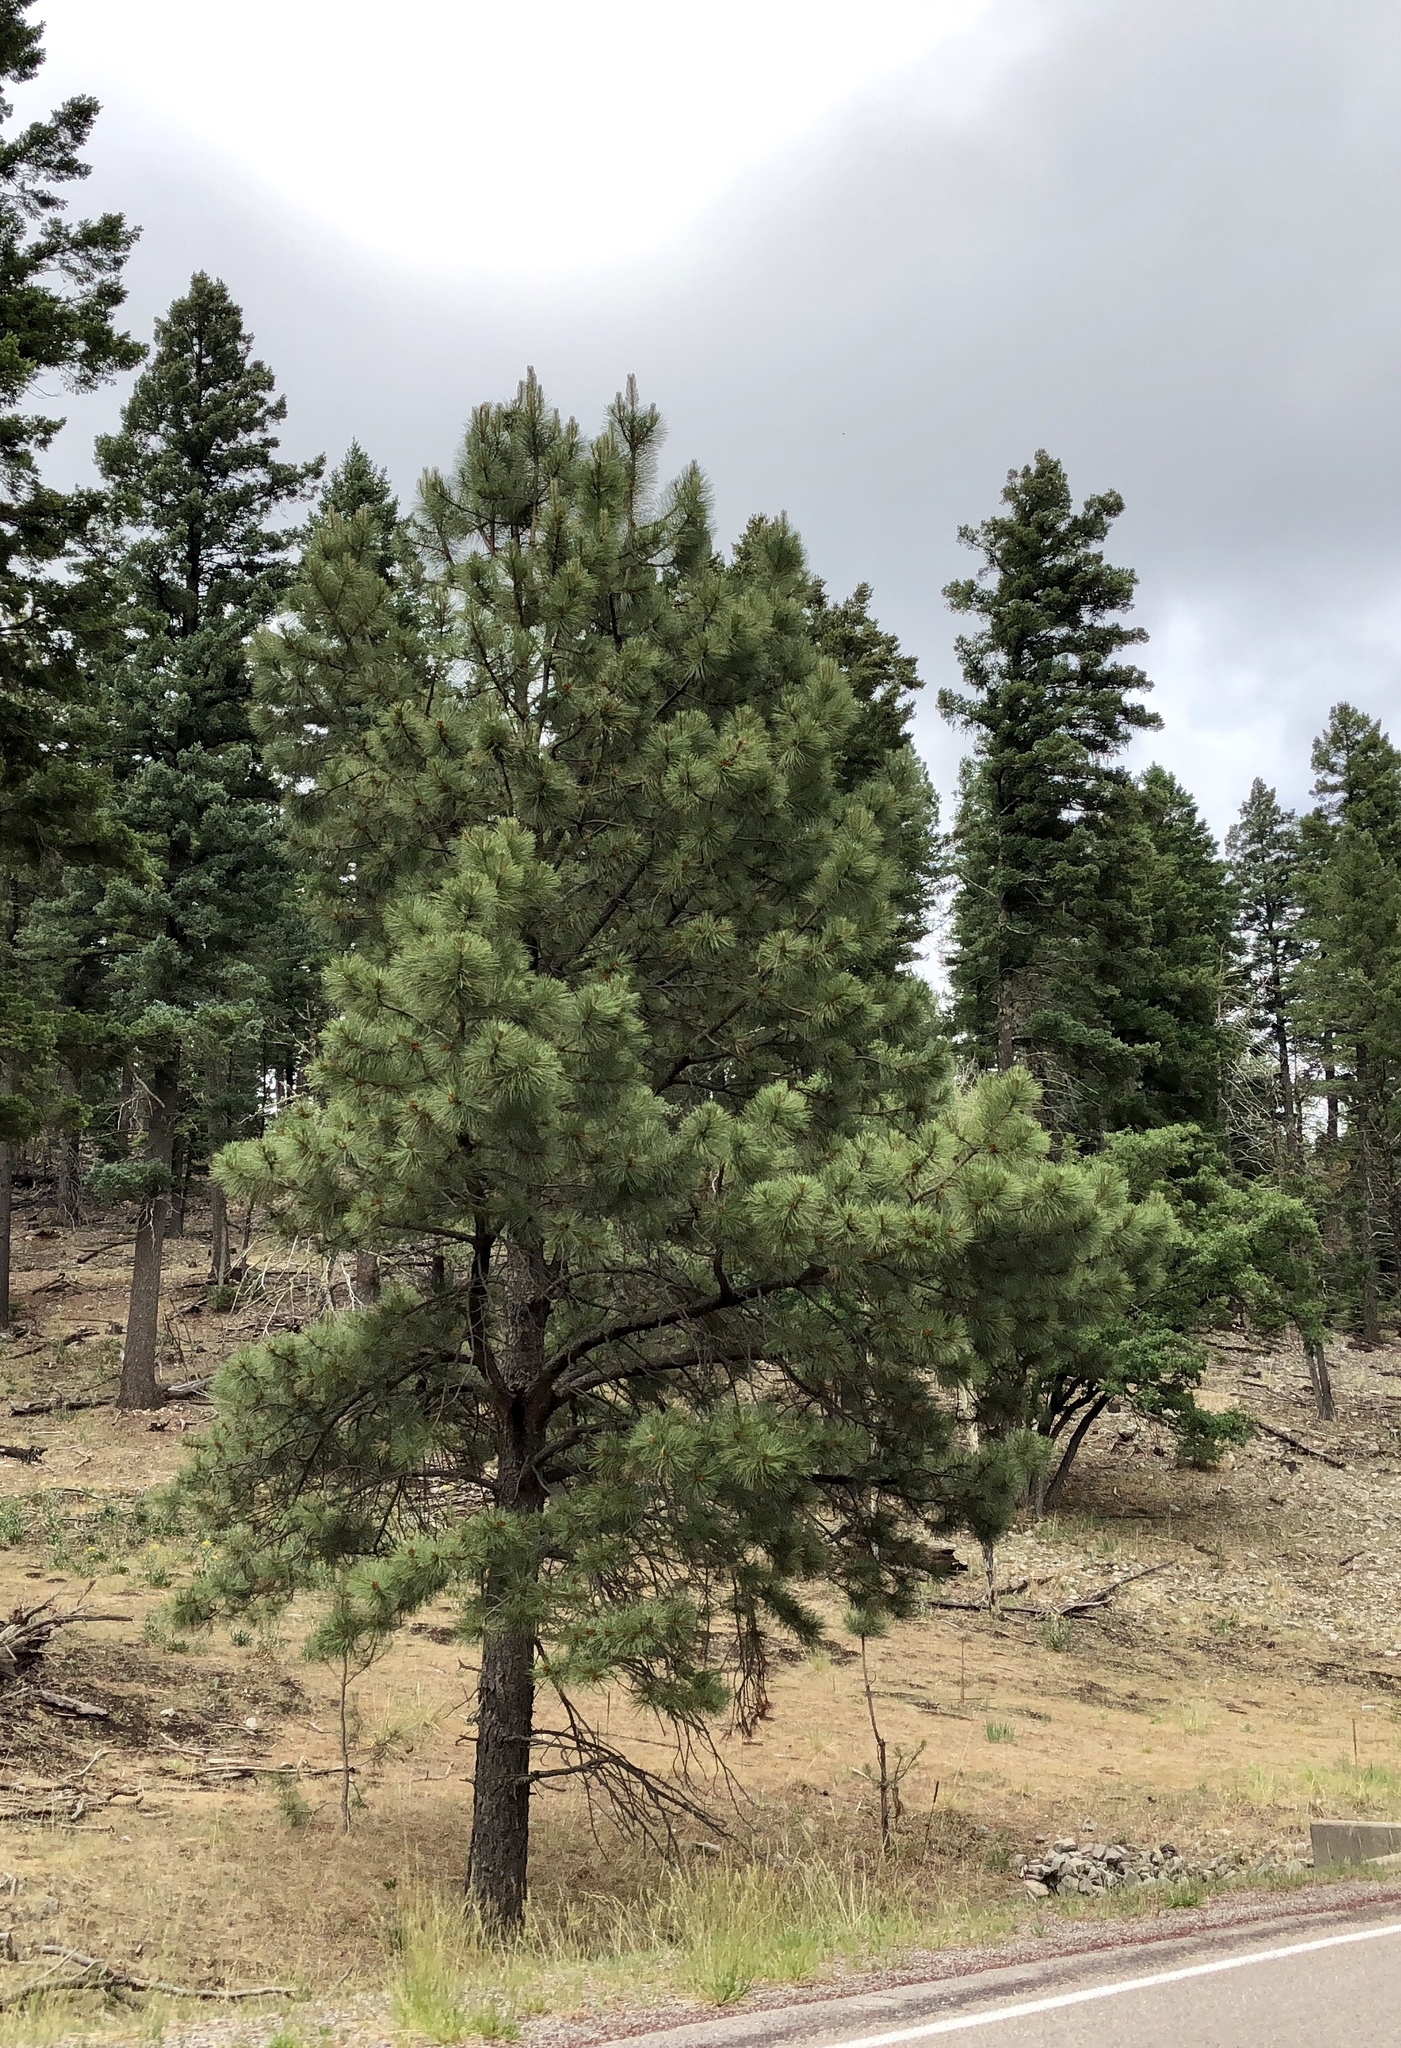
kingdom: Plantae
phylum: Tracheophyta
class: Pinopsida
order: Pinales
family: Pinaceae
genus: Pinus
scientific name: Pinus ponderosa
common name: Western yellow-pine
